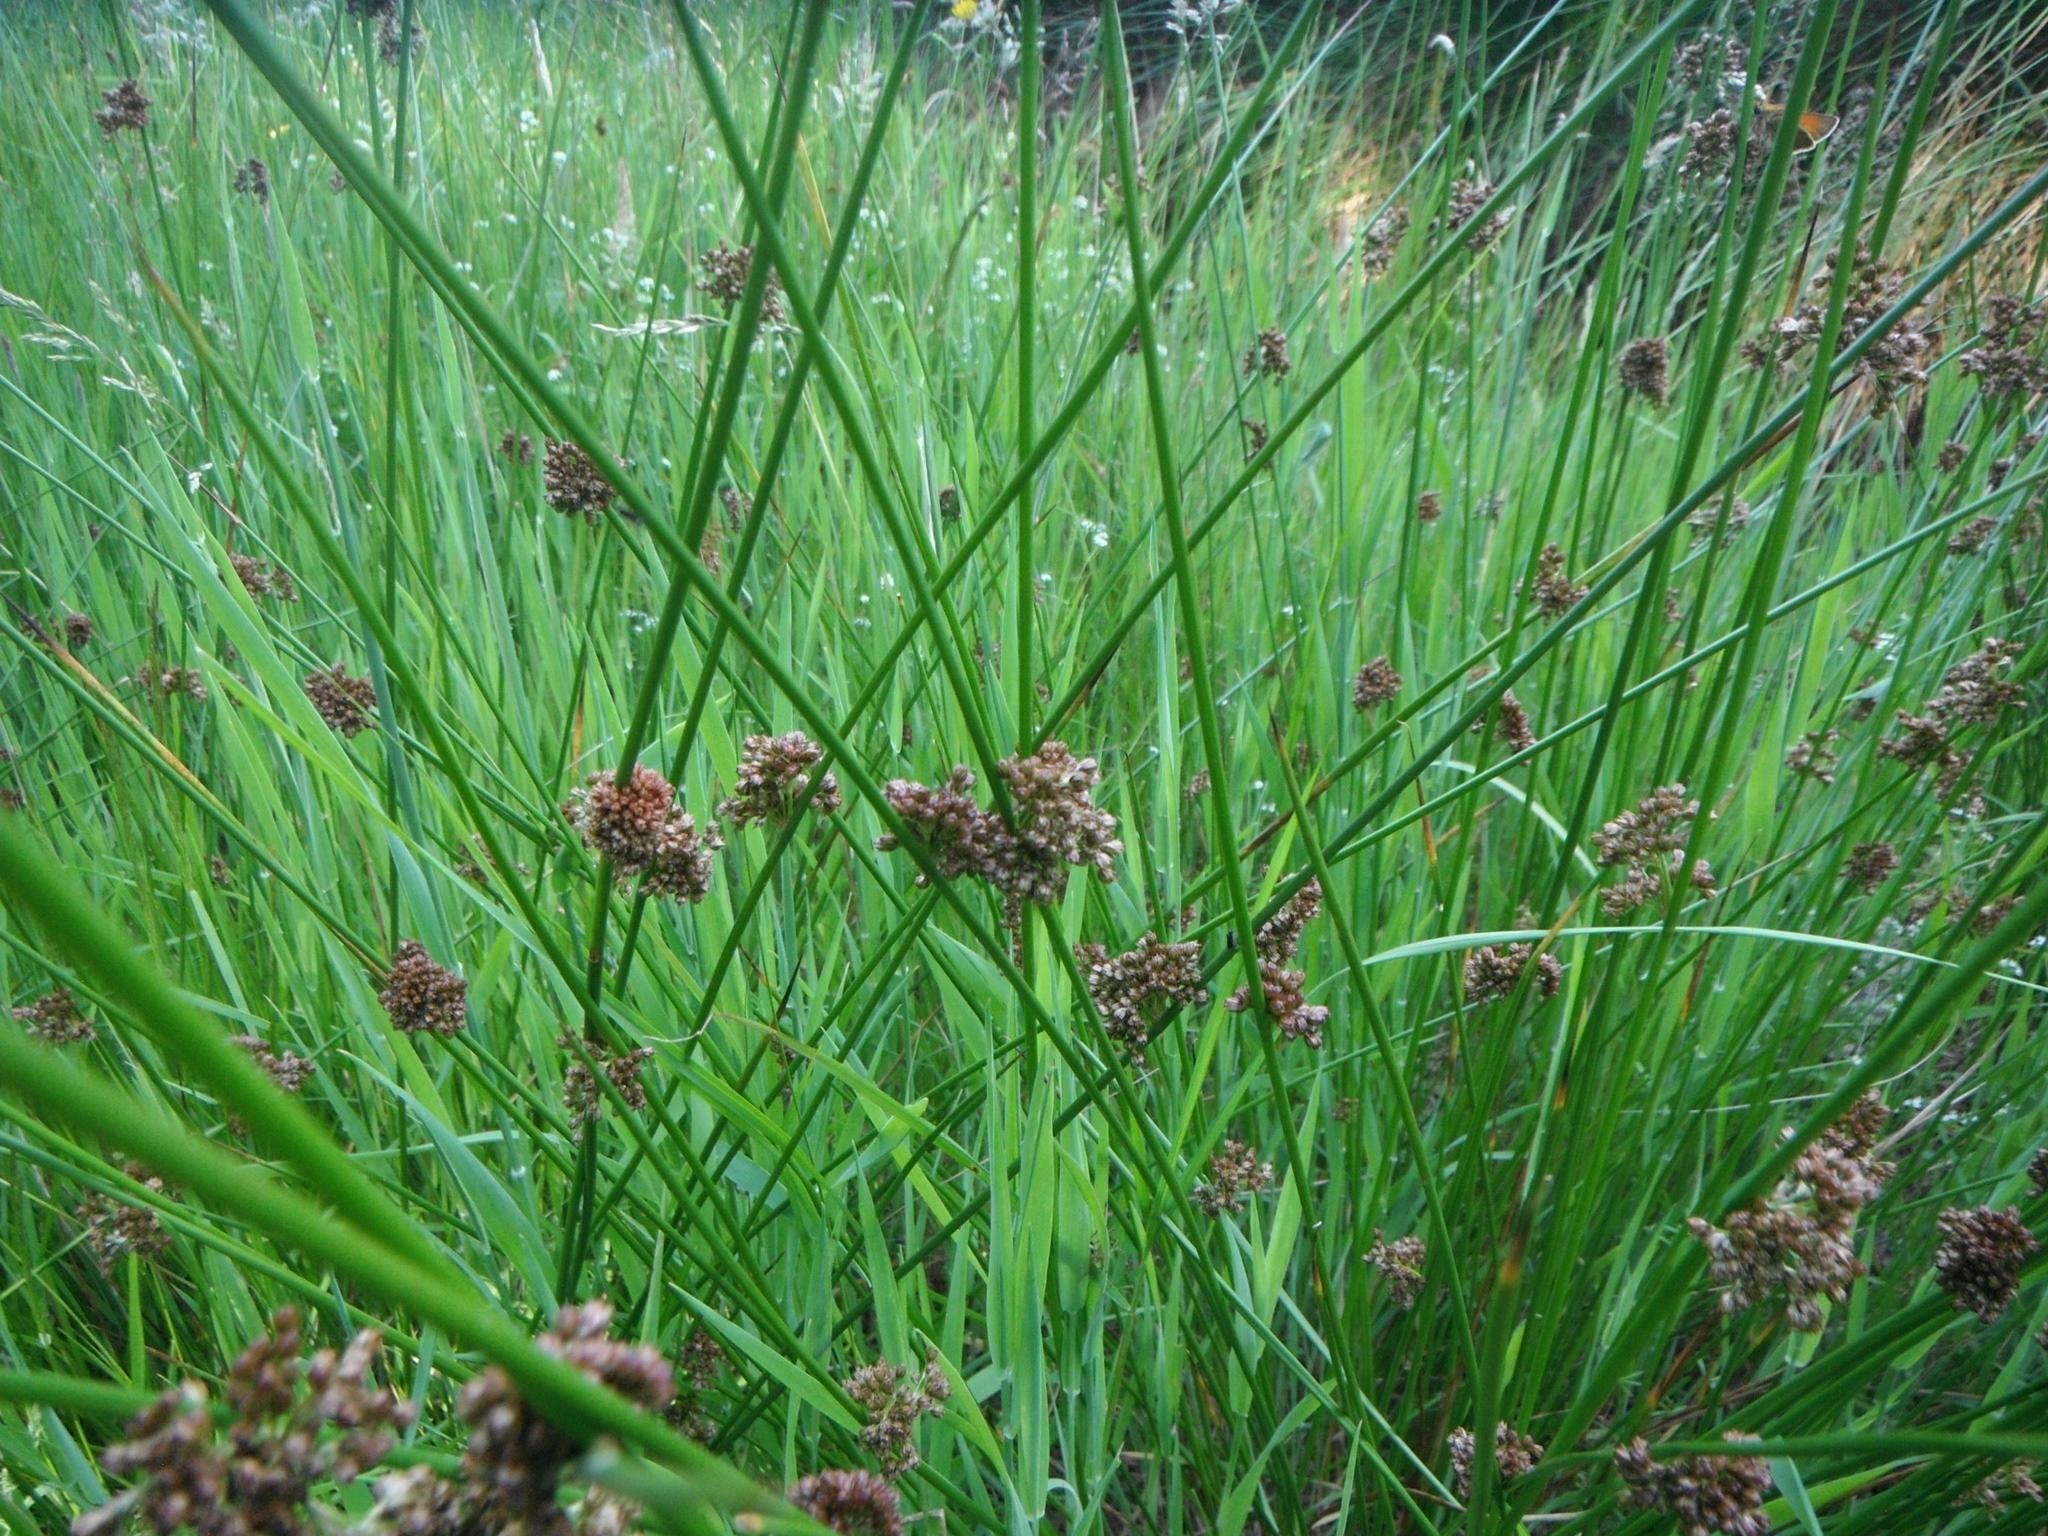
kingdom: Plantae
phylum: Tracheophyta
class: Liliopsida
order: Poales
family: Juncaceae
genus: Juncus
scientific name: Juncus effusus
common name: Soft rush
